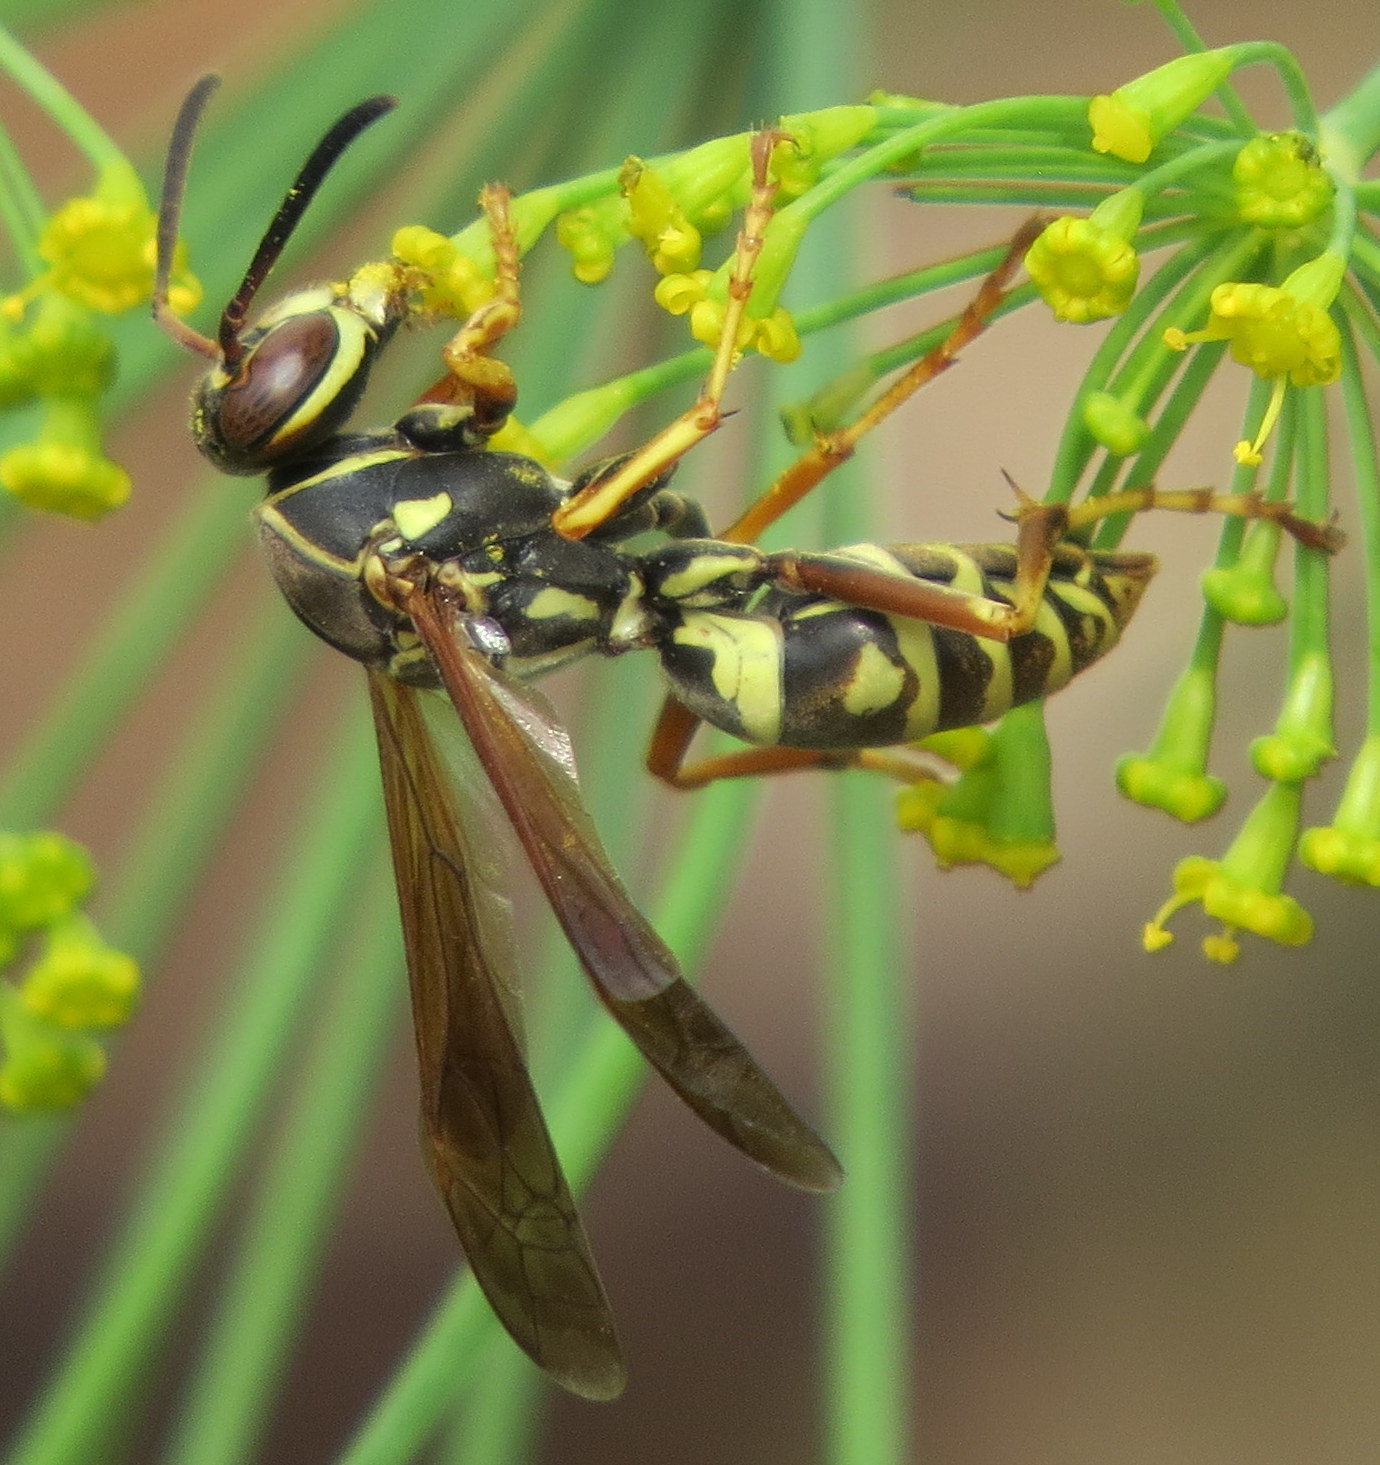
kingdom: Animalia
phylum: Arthropoda
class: Insecta
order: Hymenoptera
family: Eumenidae
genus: Polistes
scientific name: Polistes fuscatus
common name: Dark paper wasp
